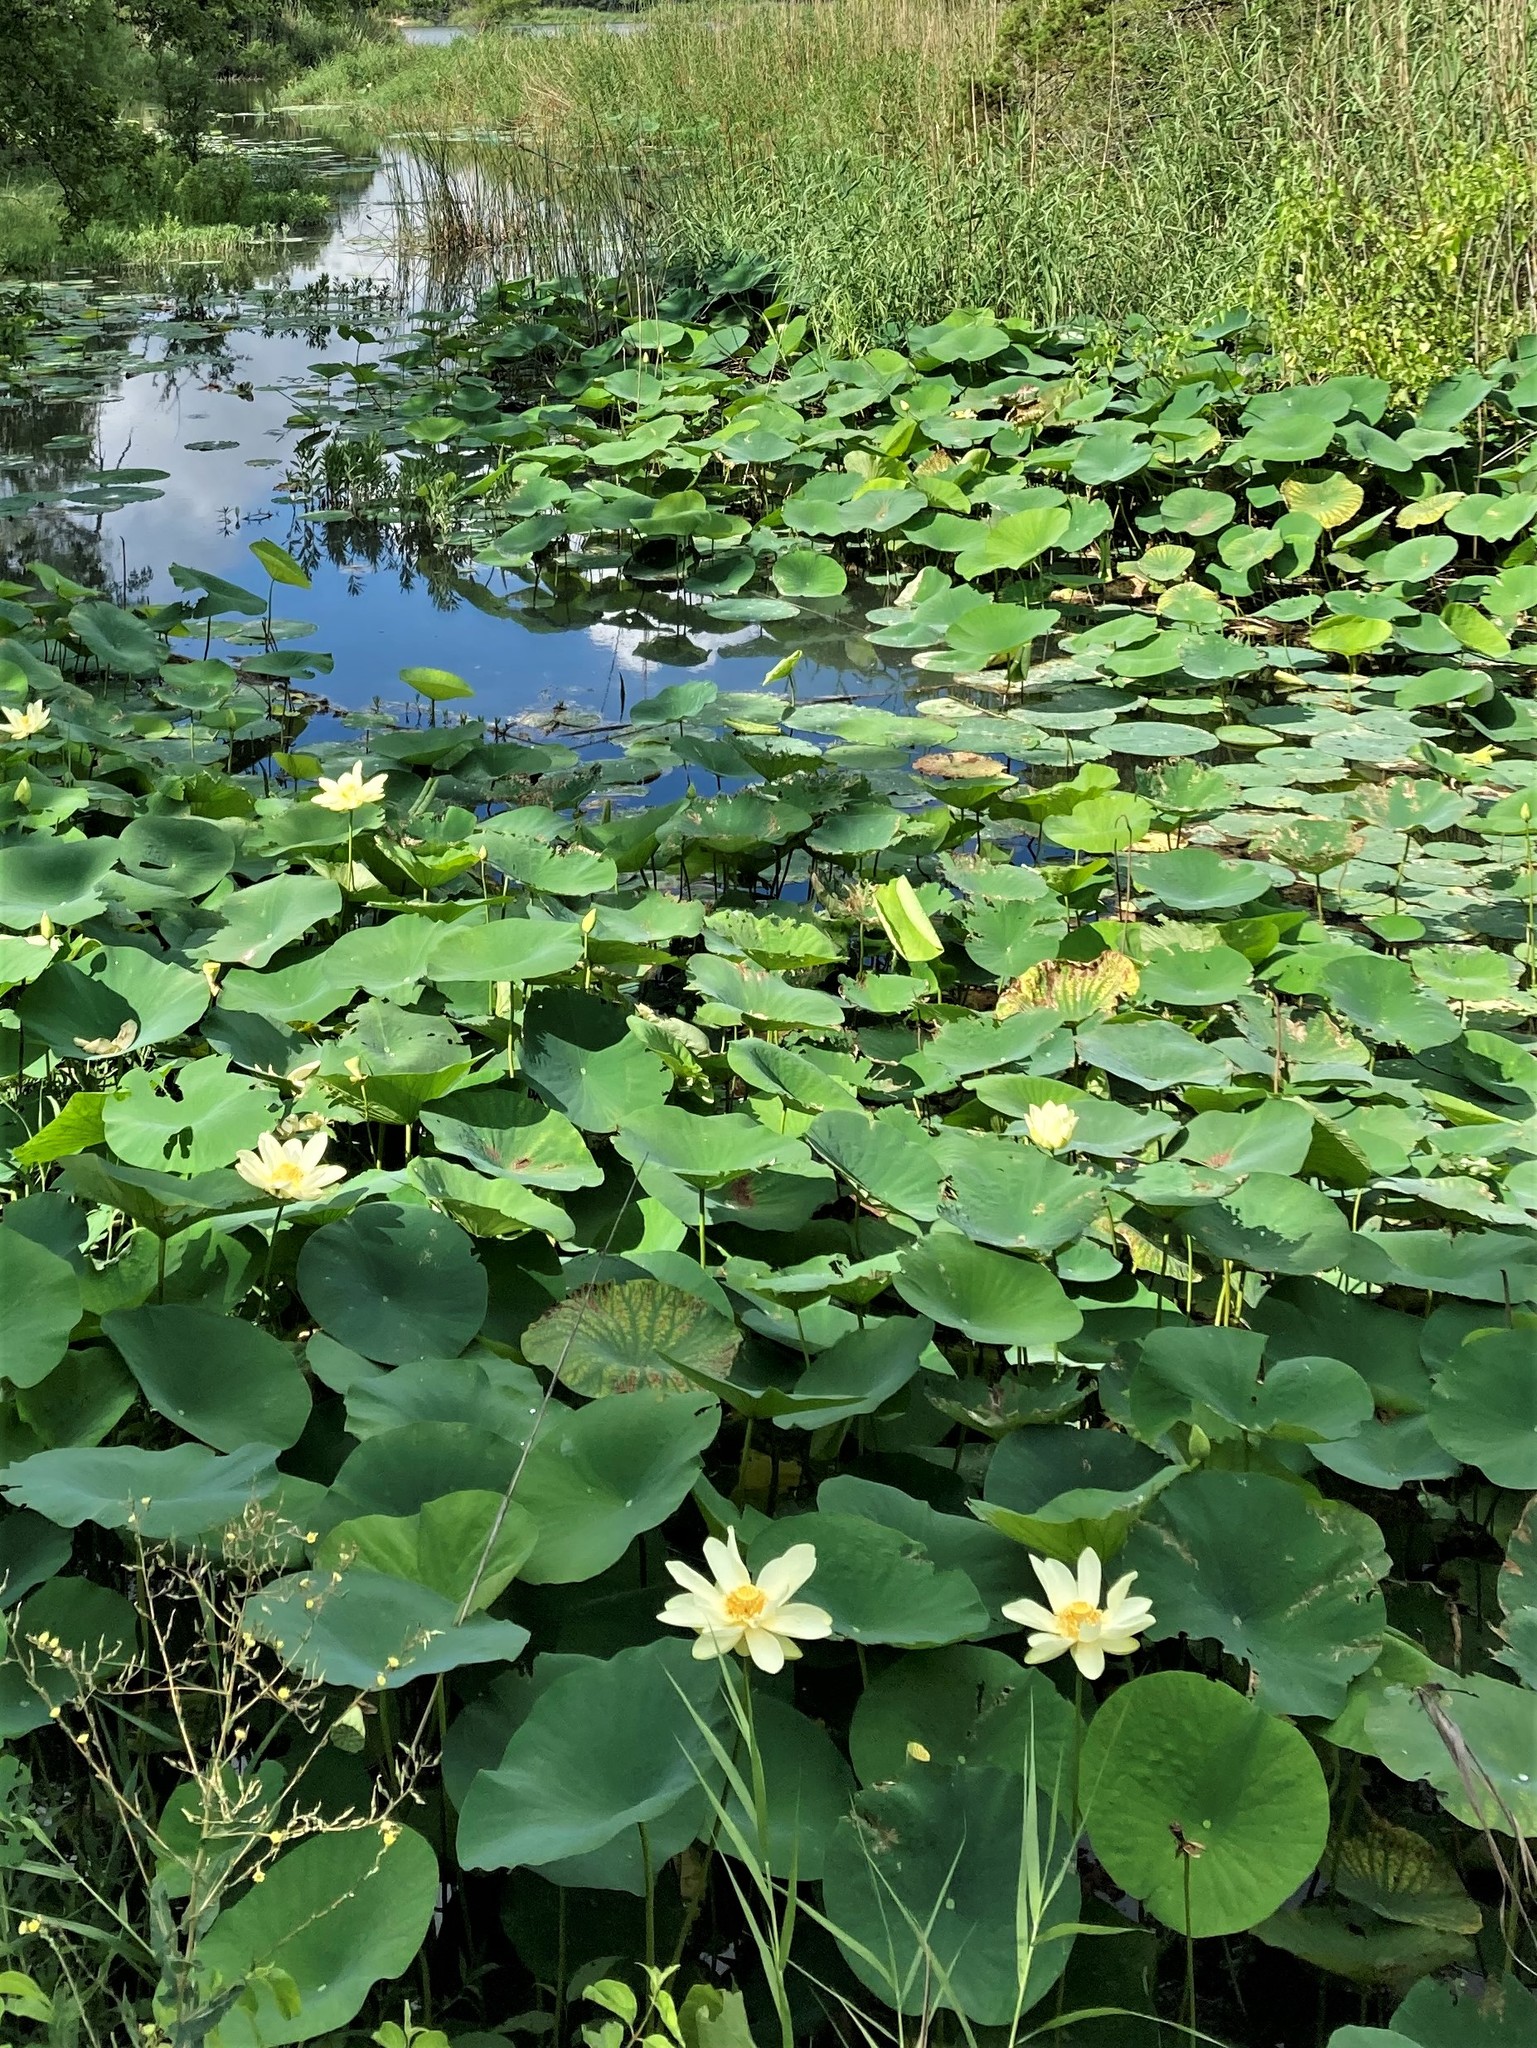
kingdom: Plantae
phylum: Tracheophyta
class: Magnoliopsida
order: Proteales
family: Nelumbonaceae
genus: Nelumbo
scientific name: Nelumbo lutea
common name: American lotus
